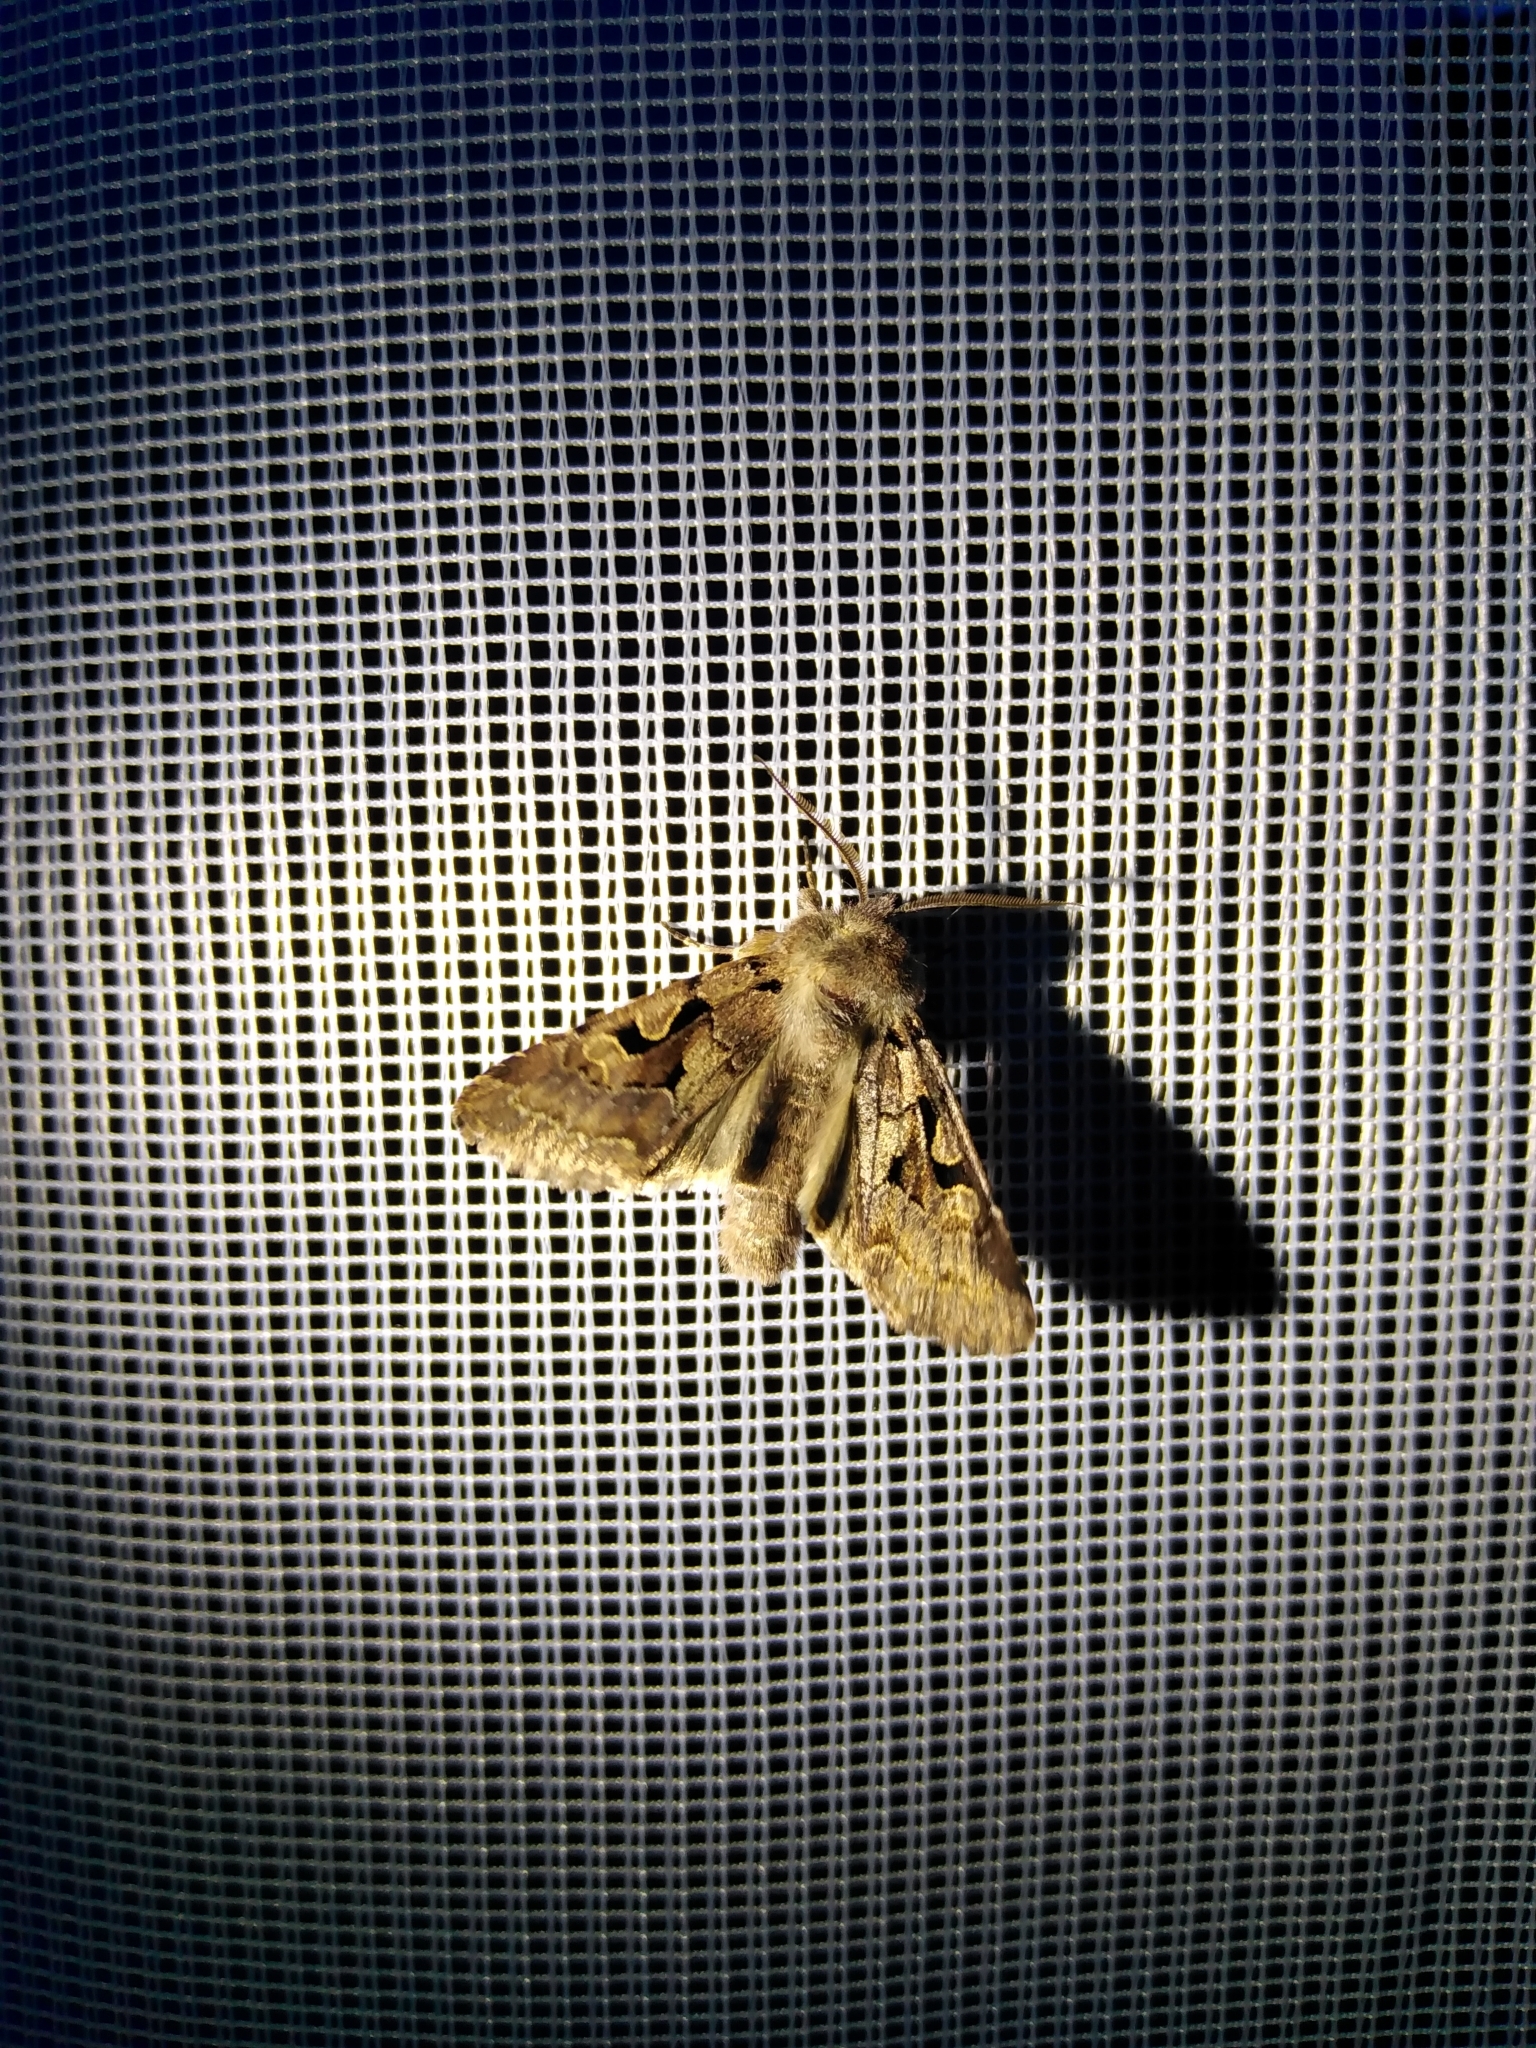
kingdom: Animalia
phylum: Arthropoda
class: Insecta
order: Lepidoptera
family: Noctuidae
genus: Orthosia
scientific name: Orthosia gothica
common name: Hebrew character
